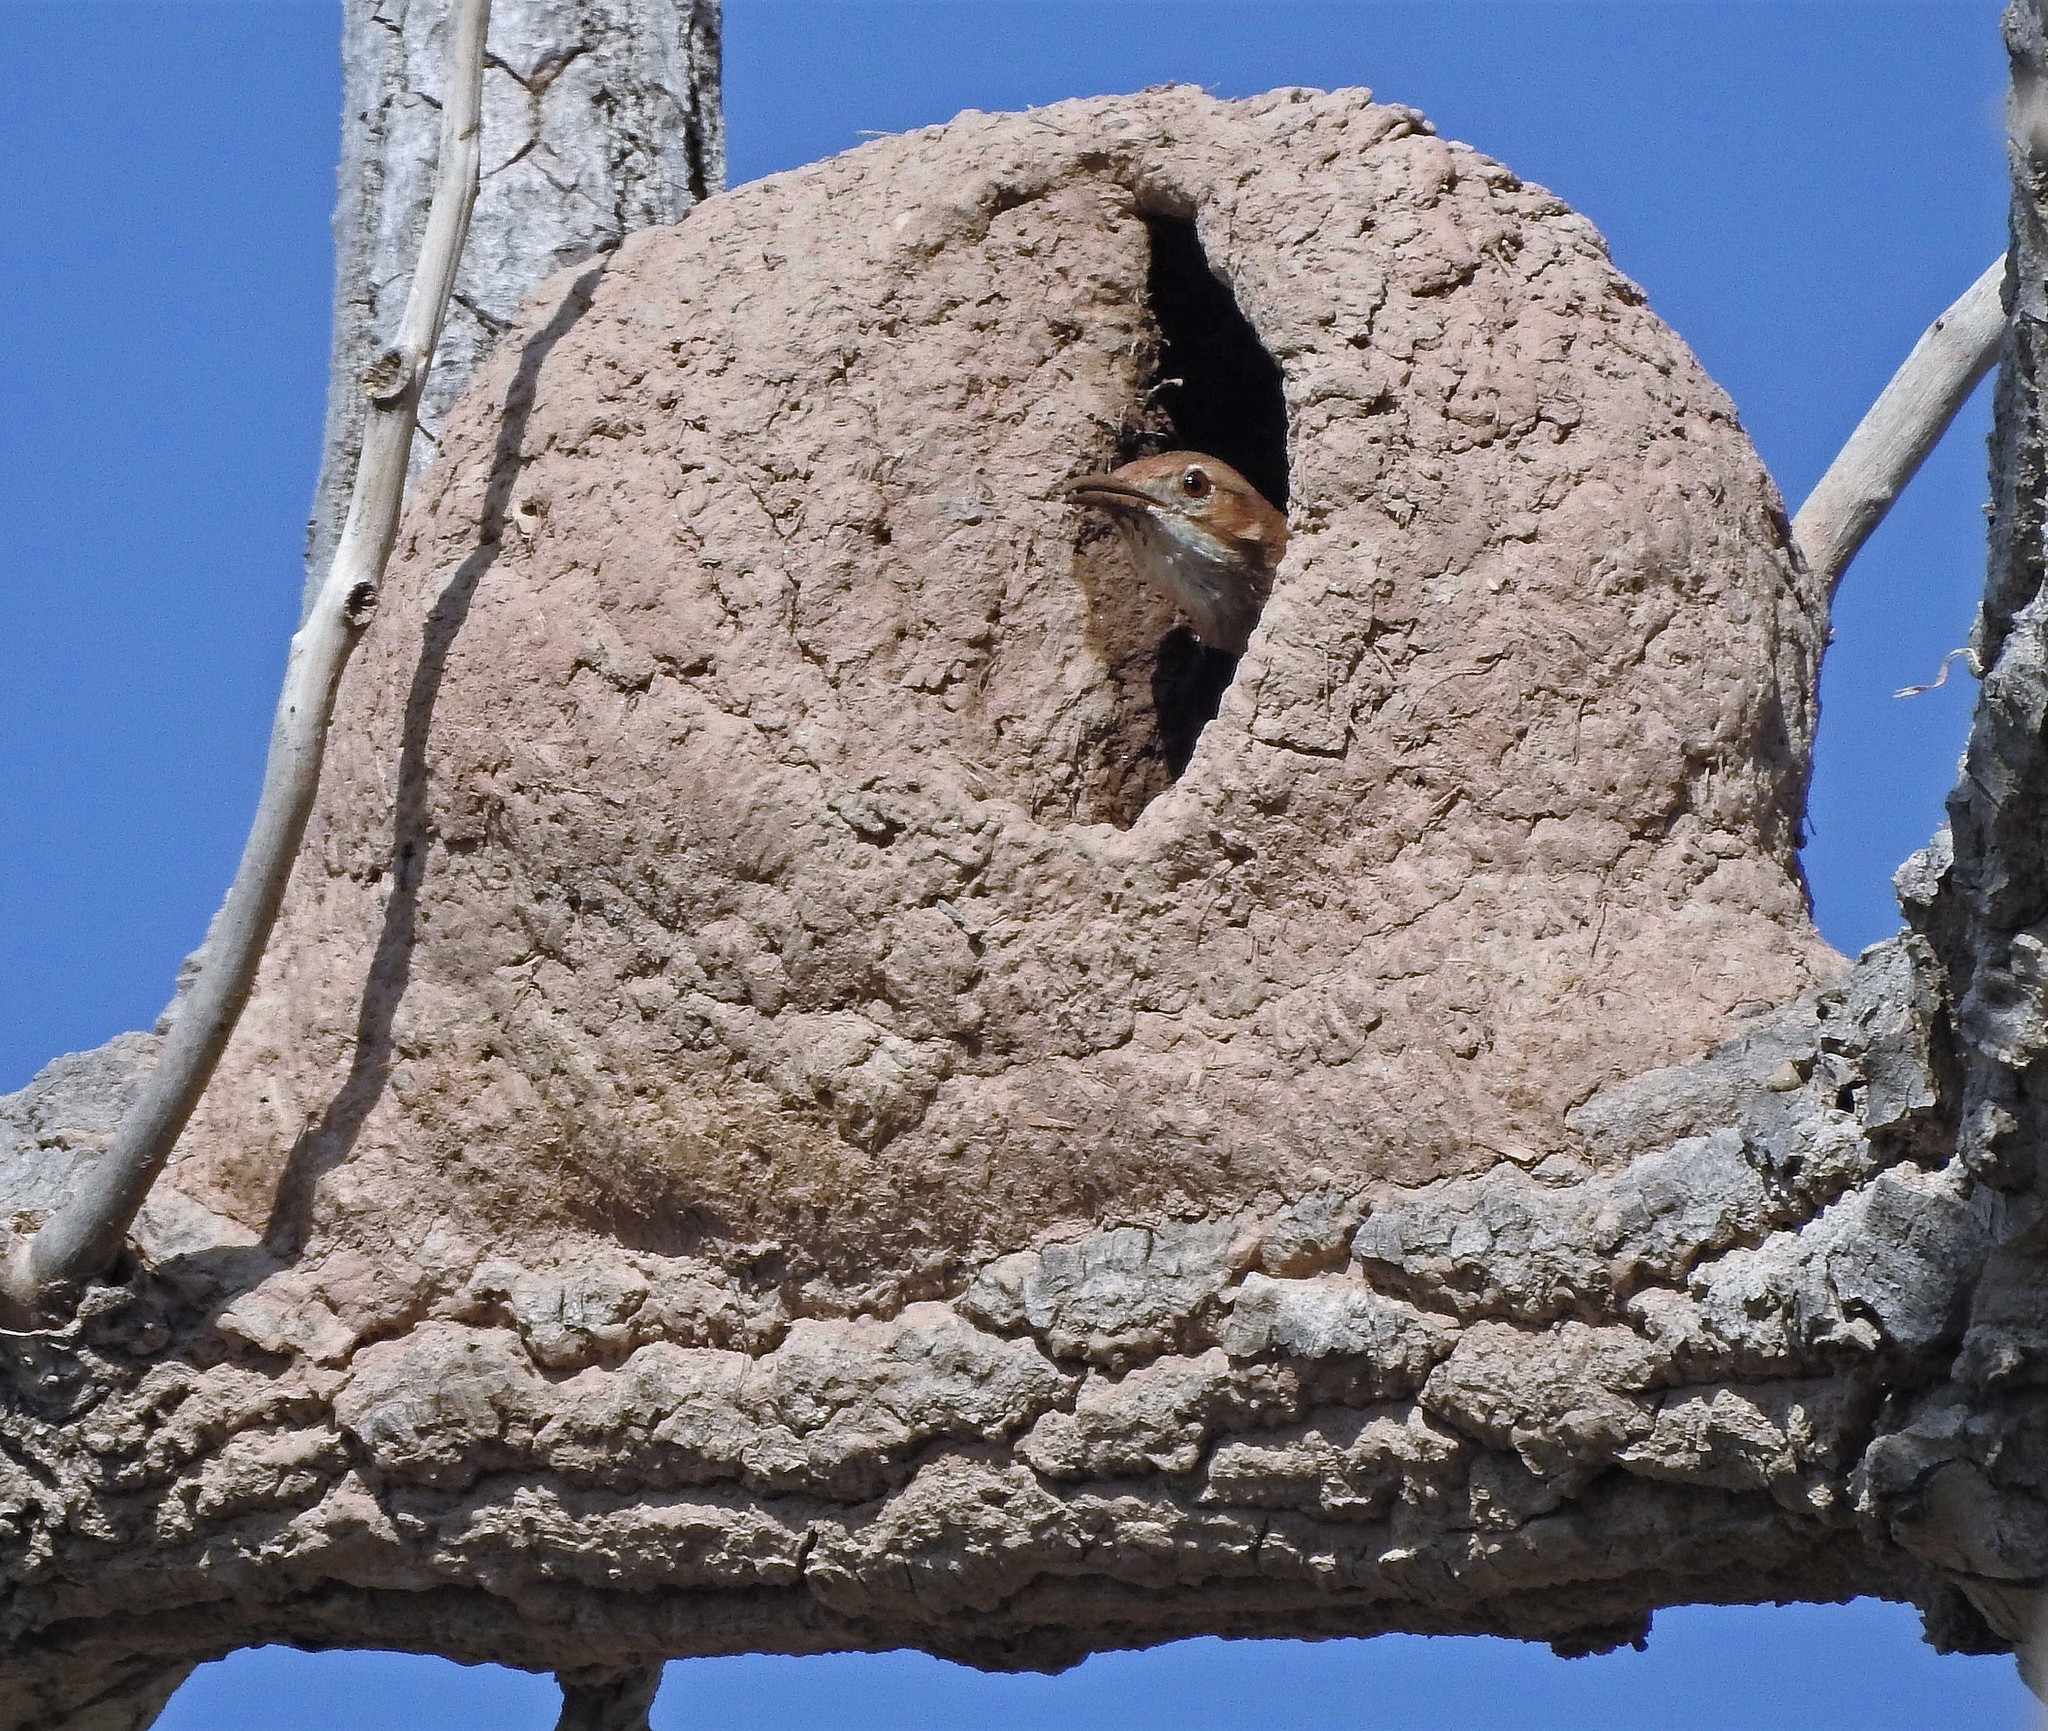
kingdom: Animalia
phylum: Chordata
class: Aves
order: Passeriformes
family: Furnariidae
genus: Furnarius
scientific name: Furnarius rufus
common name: Rufous hornero
